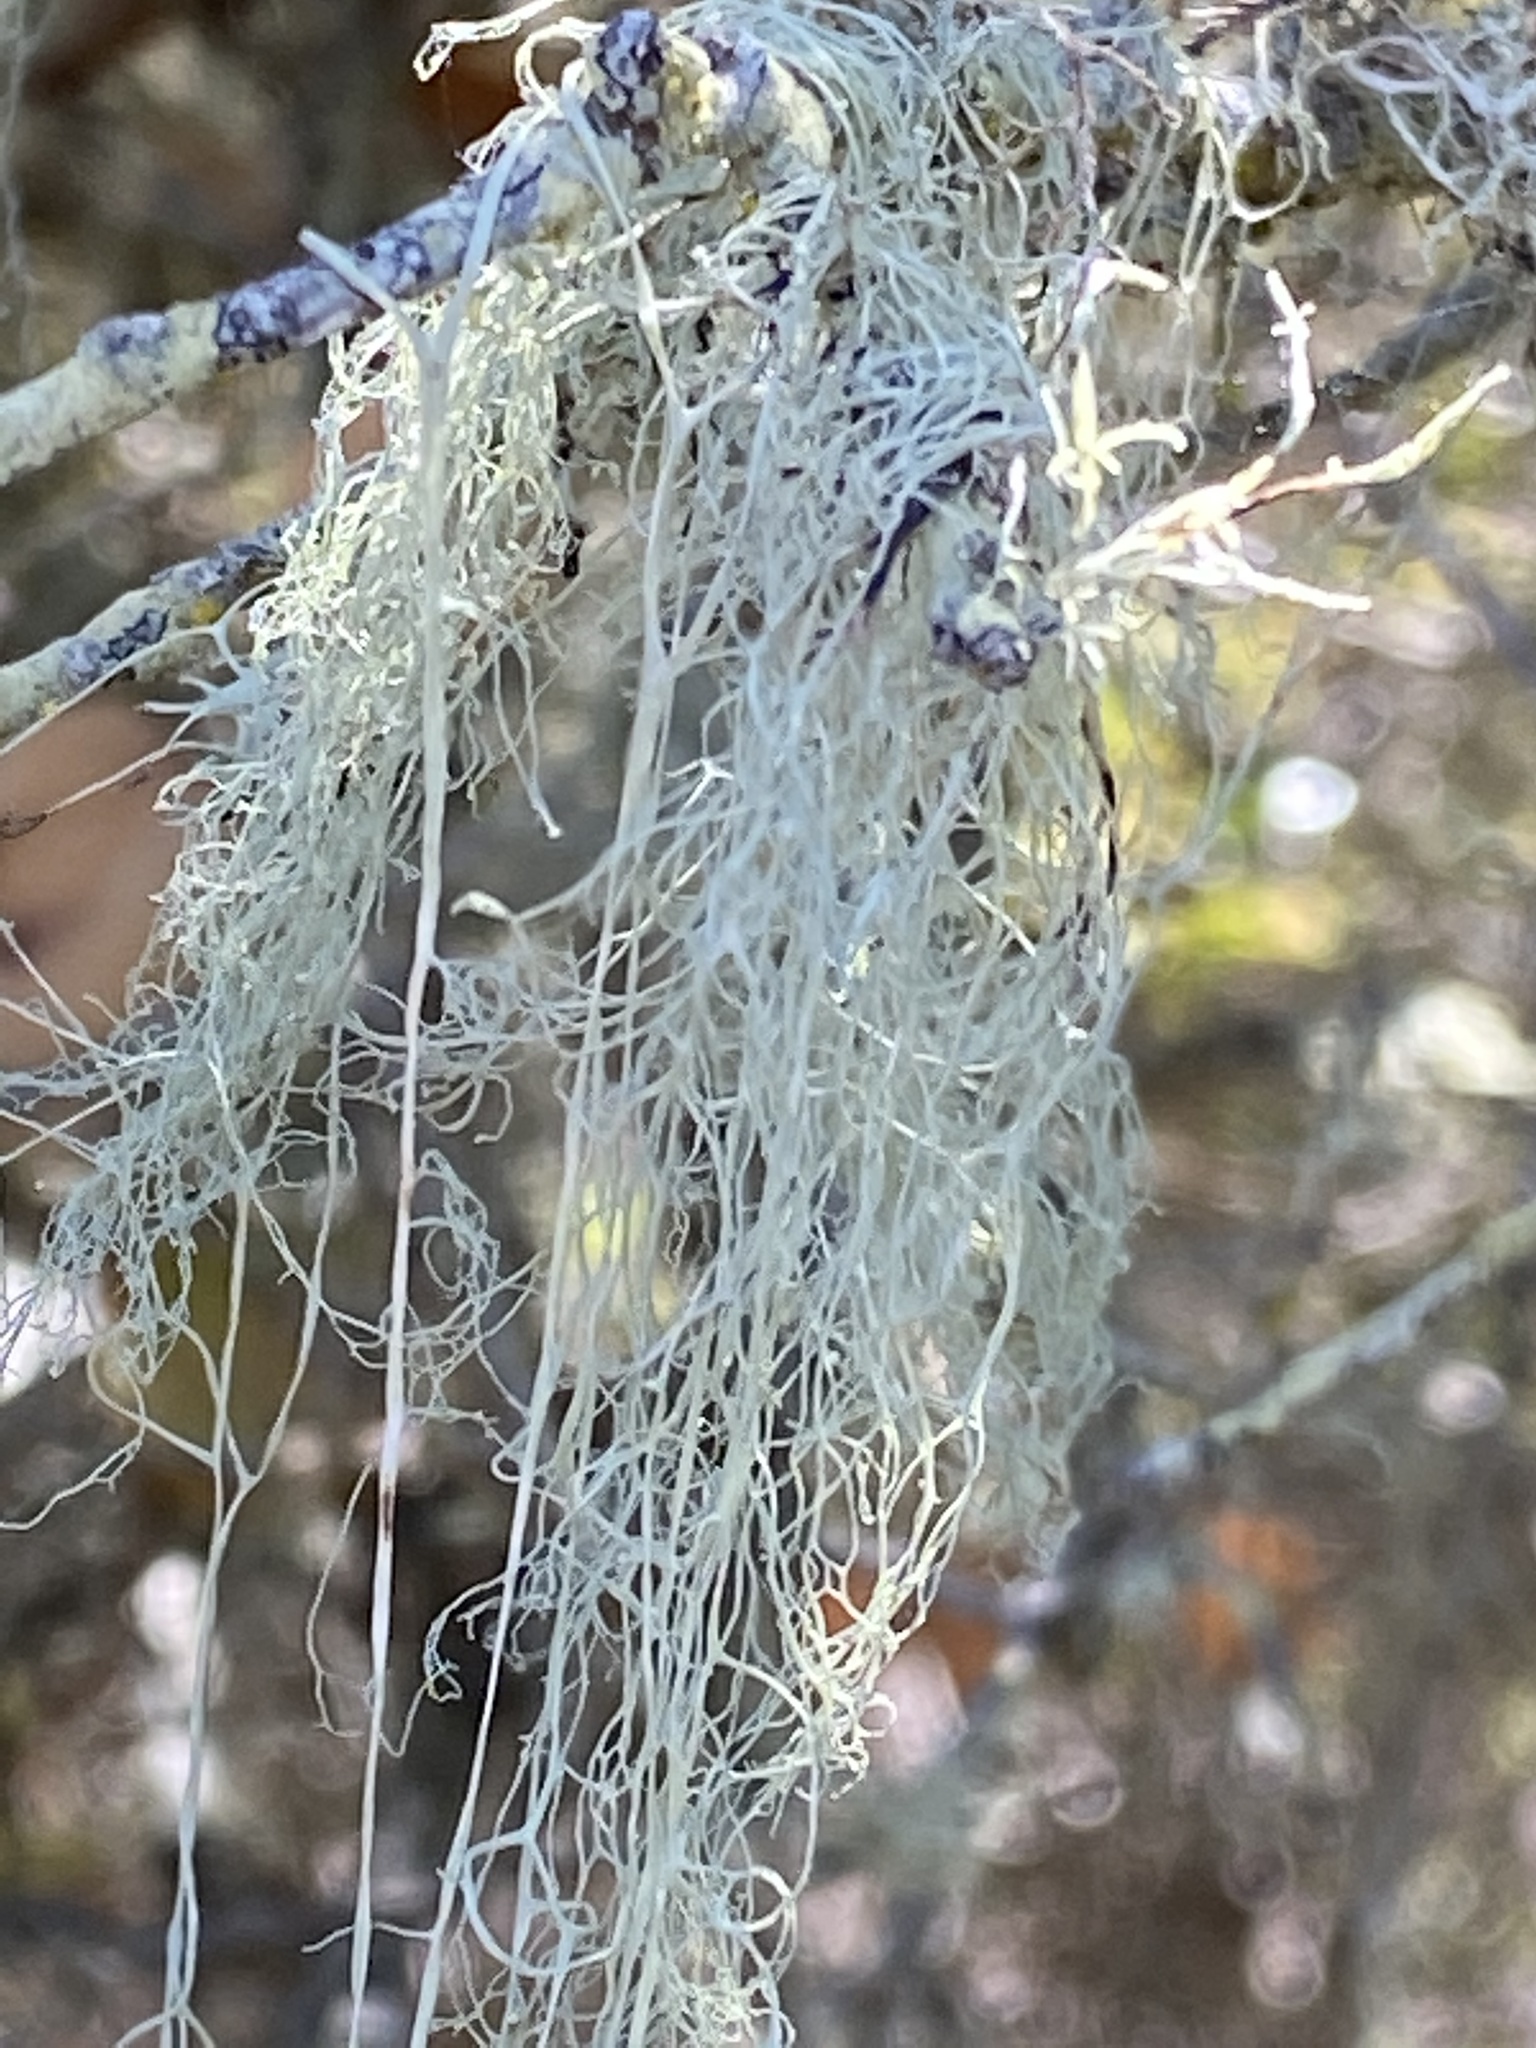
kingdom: Fungi
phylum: Ascomycota
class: Lecanoromycetes
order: Lecanorales
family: Ramalinaceae
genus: Ramalina
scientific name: Ramalina menziesii
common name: Lace lichen
